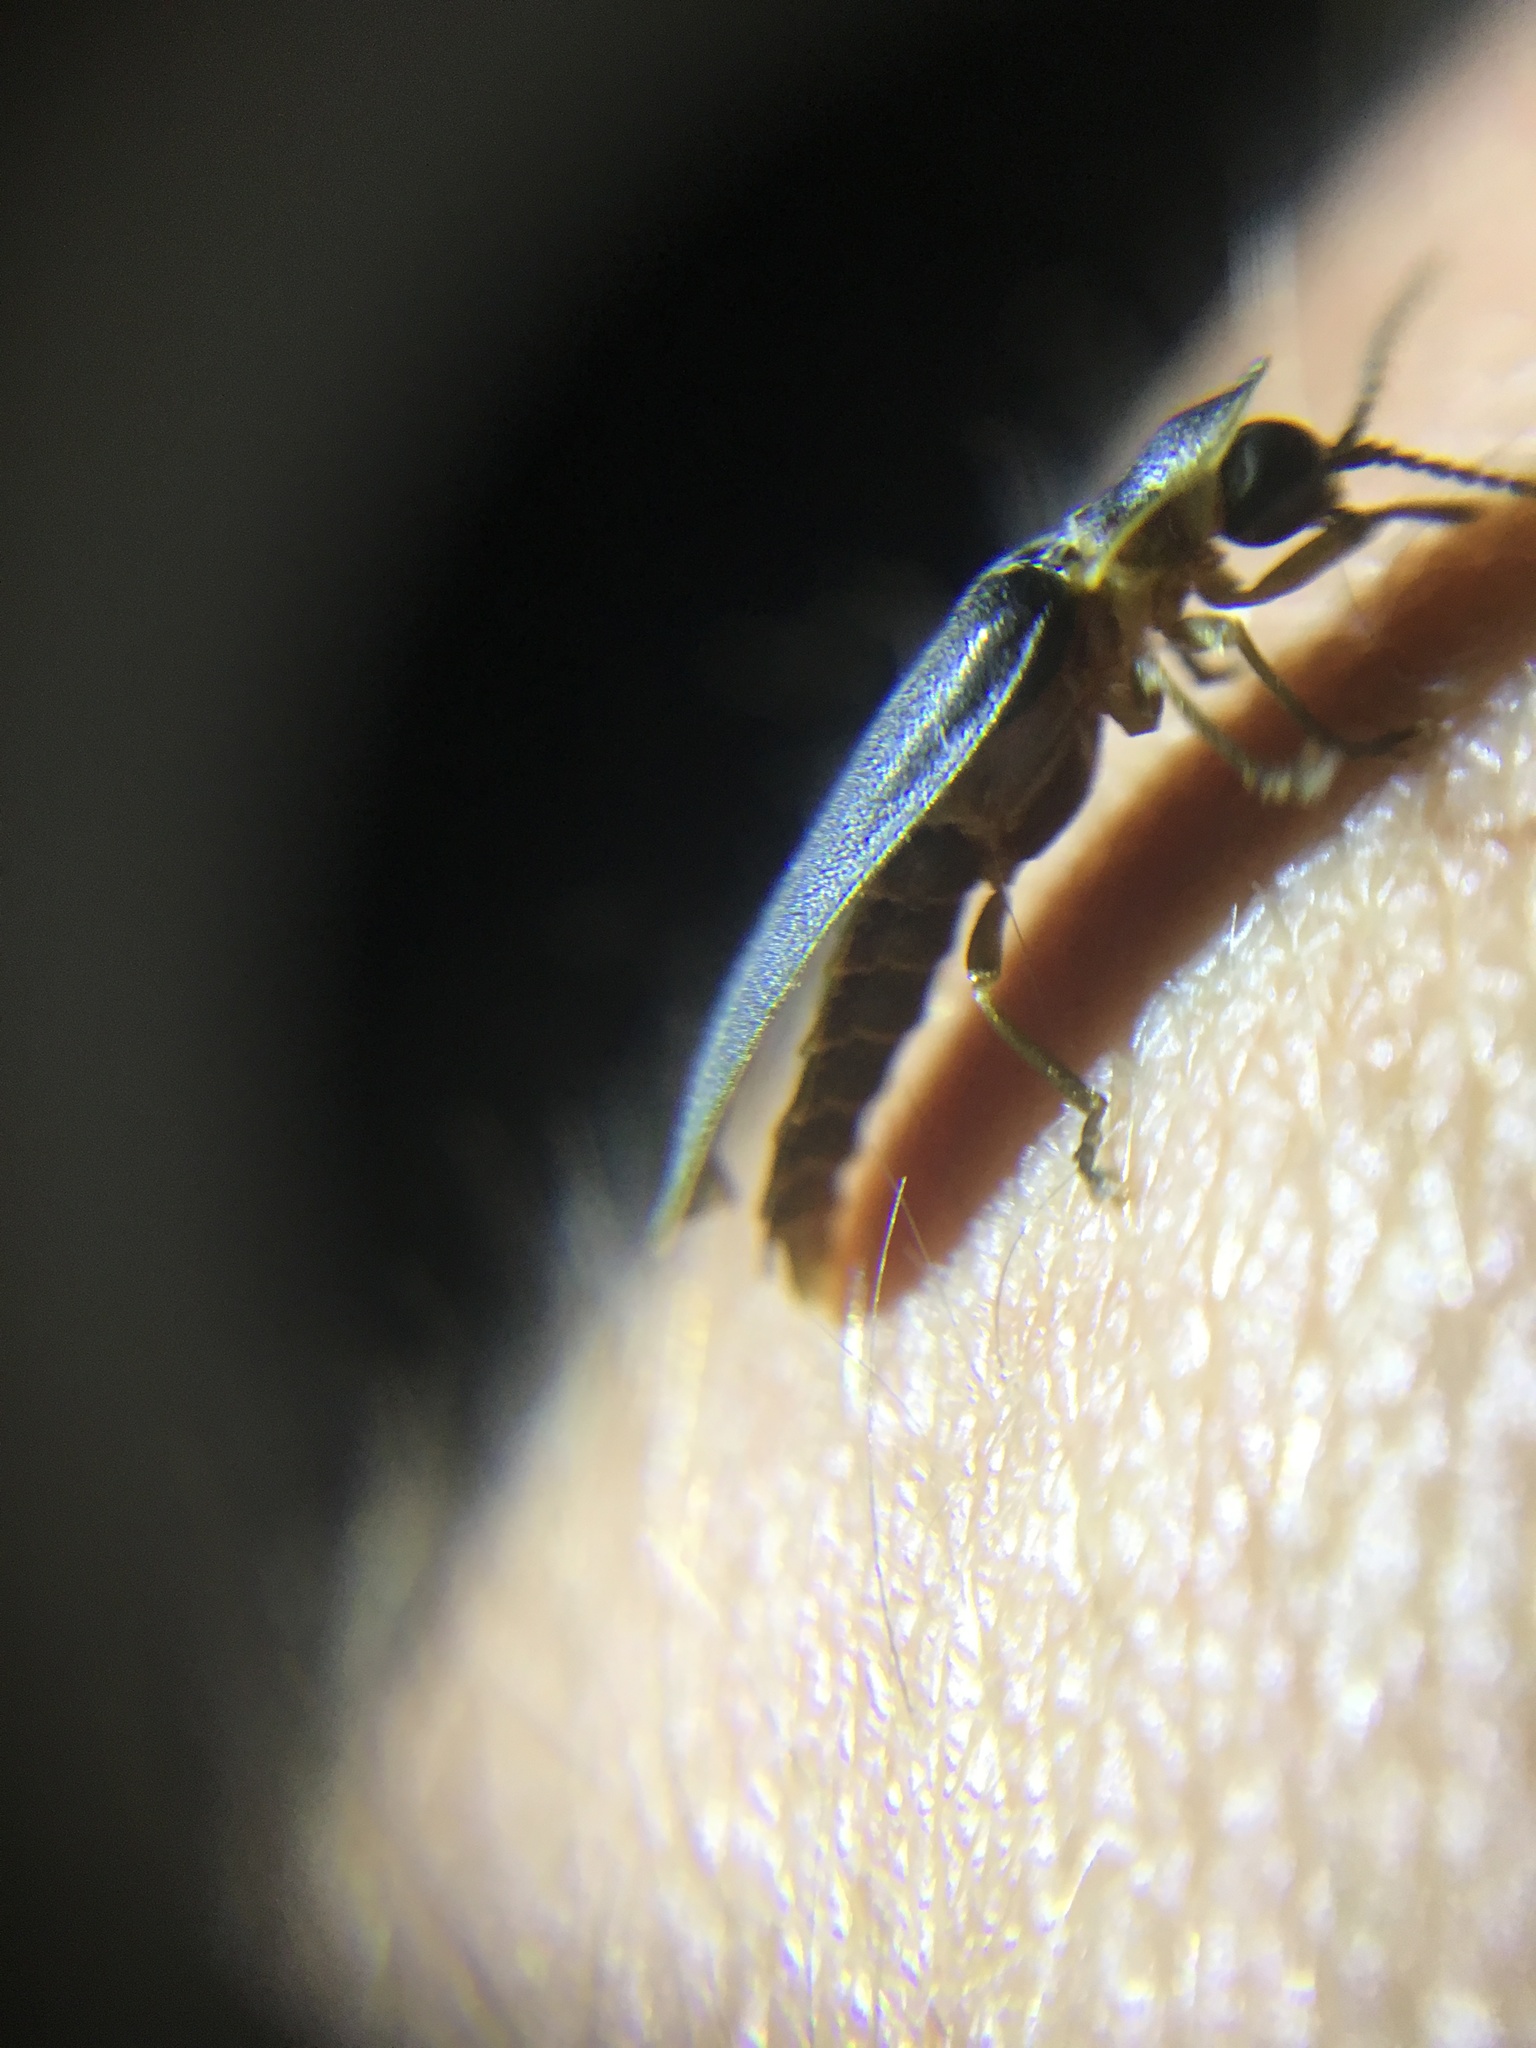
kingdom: Animalia
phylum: Arthropoda
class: Insecta
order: Coleoptera
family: Lampyridae
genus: Lampyris
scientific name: Lampyris noctiluca
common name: Glow-worm
